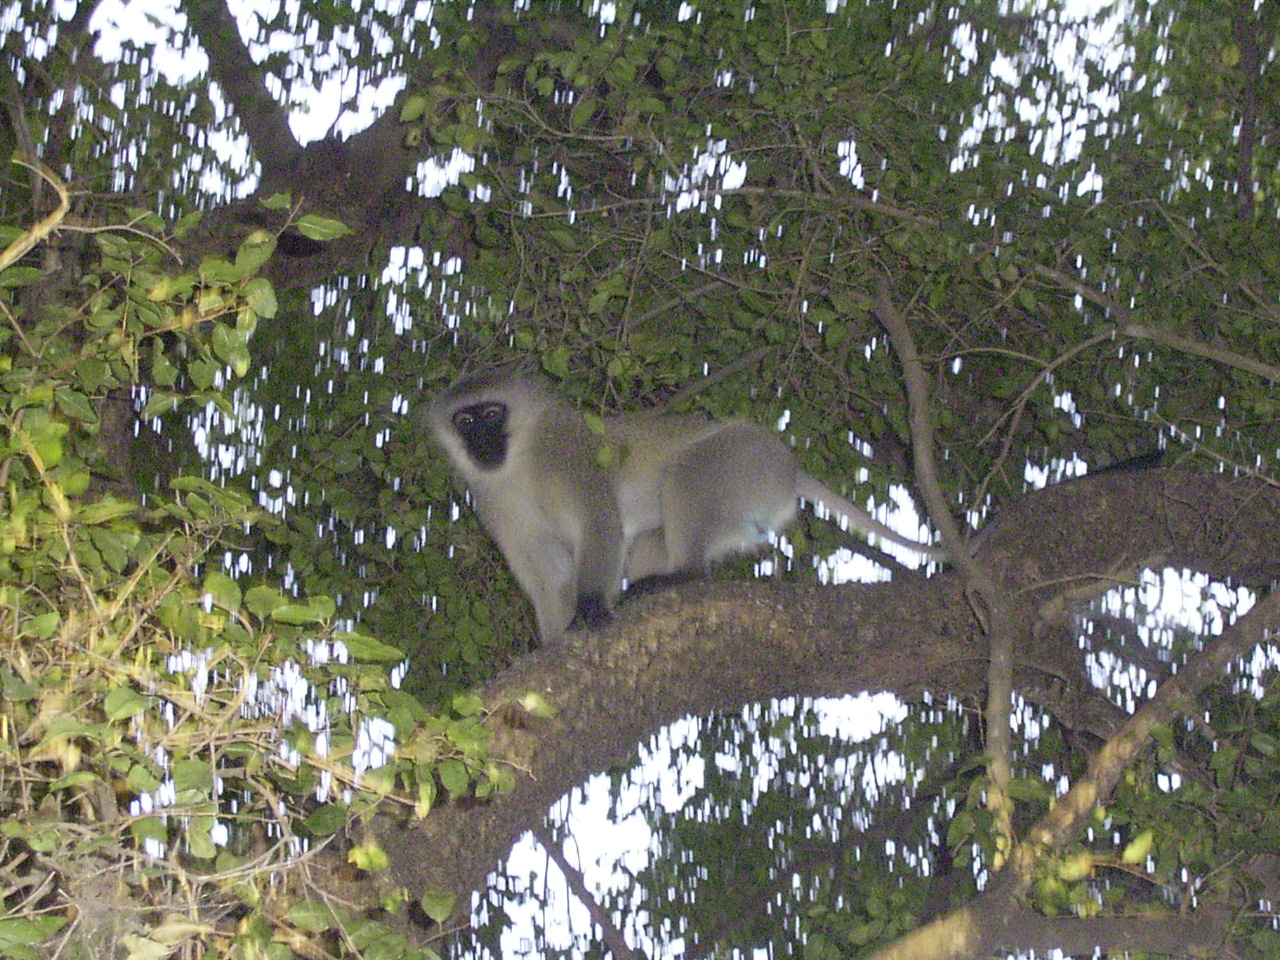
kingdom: Animalia
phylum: Chordata
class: Mammalia
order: Primates
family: Cercopithecidae
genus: Chlorocebus
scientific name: Chlorocebus pygerythrus
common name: Vervet monkey
